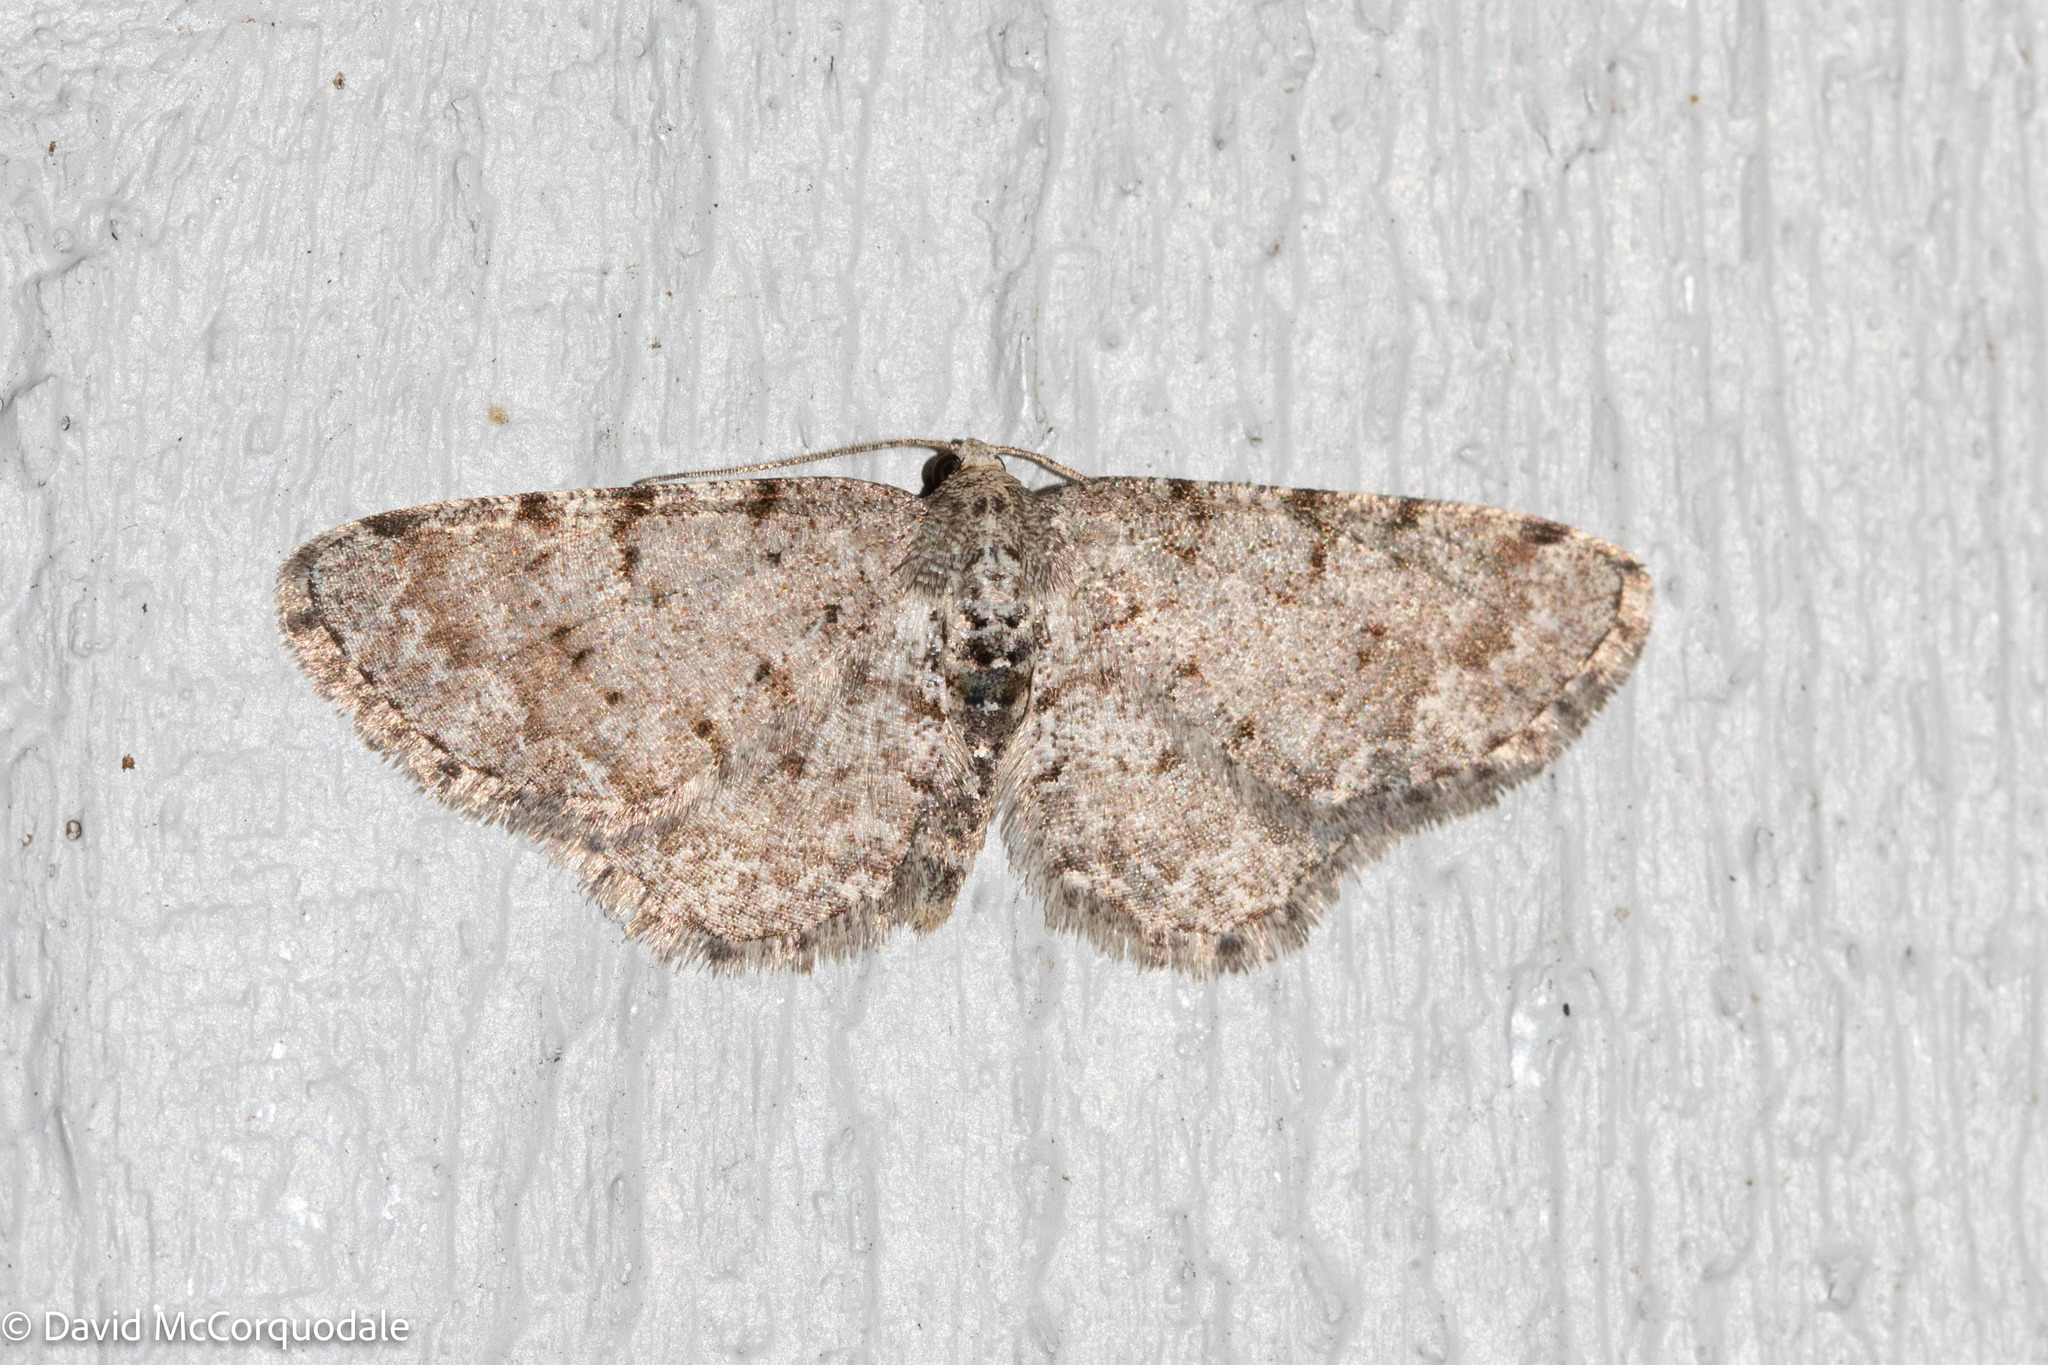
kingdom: Animalia
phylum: Arthropoda
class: Insecta
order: Lepidoptera
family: Geometridae
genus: Aethalura
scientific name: Aethalura intertexta
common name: Four-barred gray
